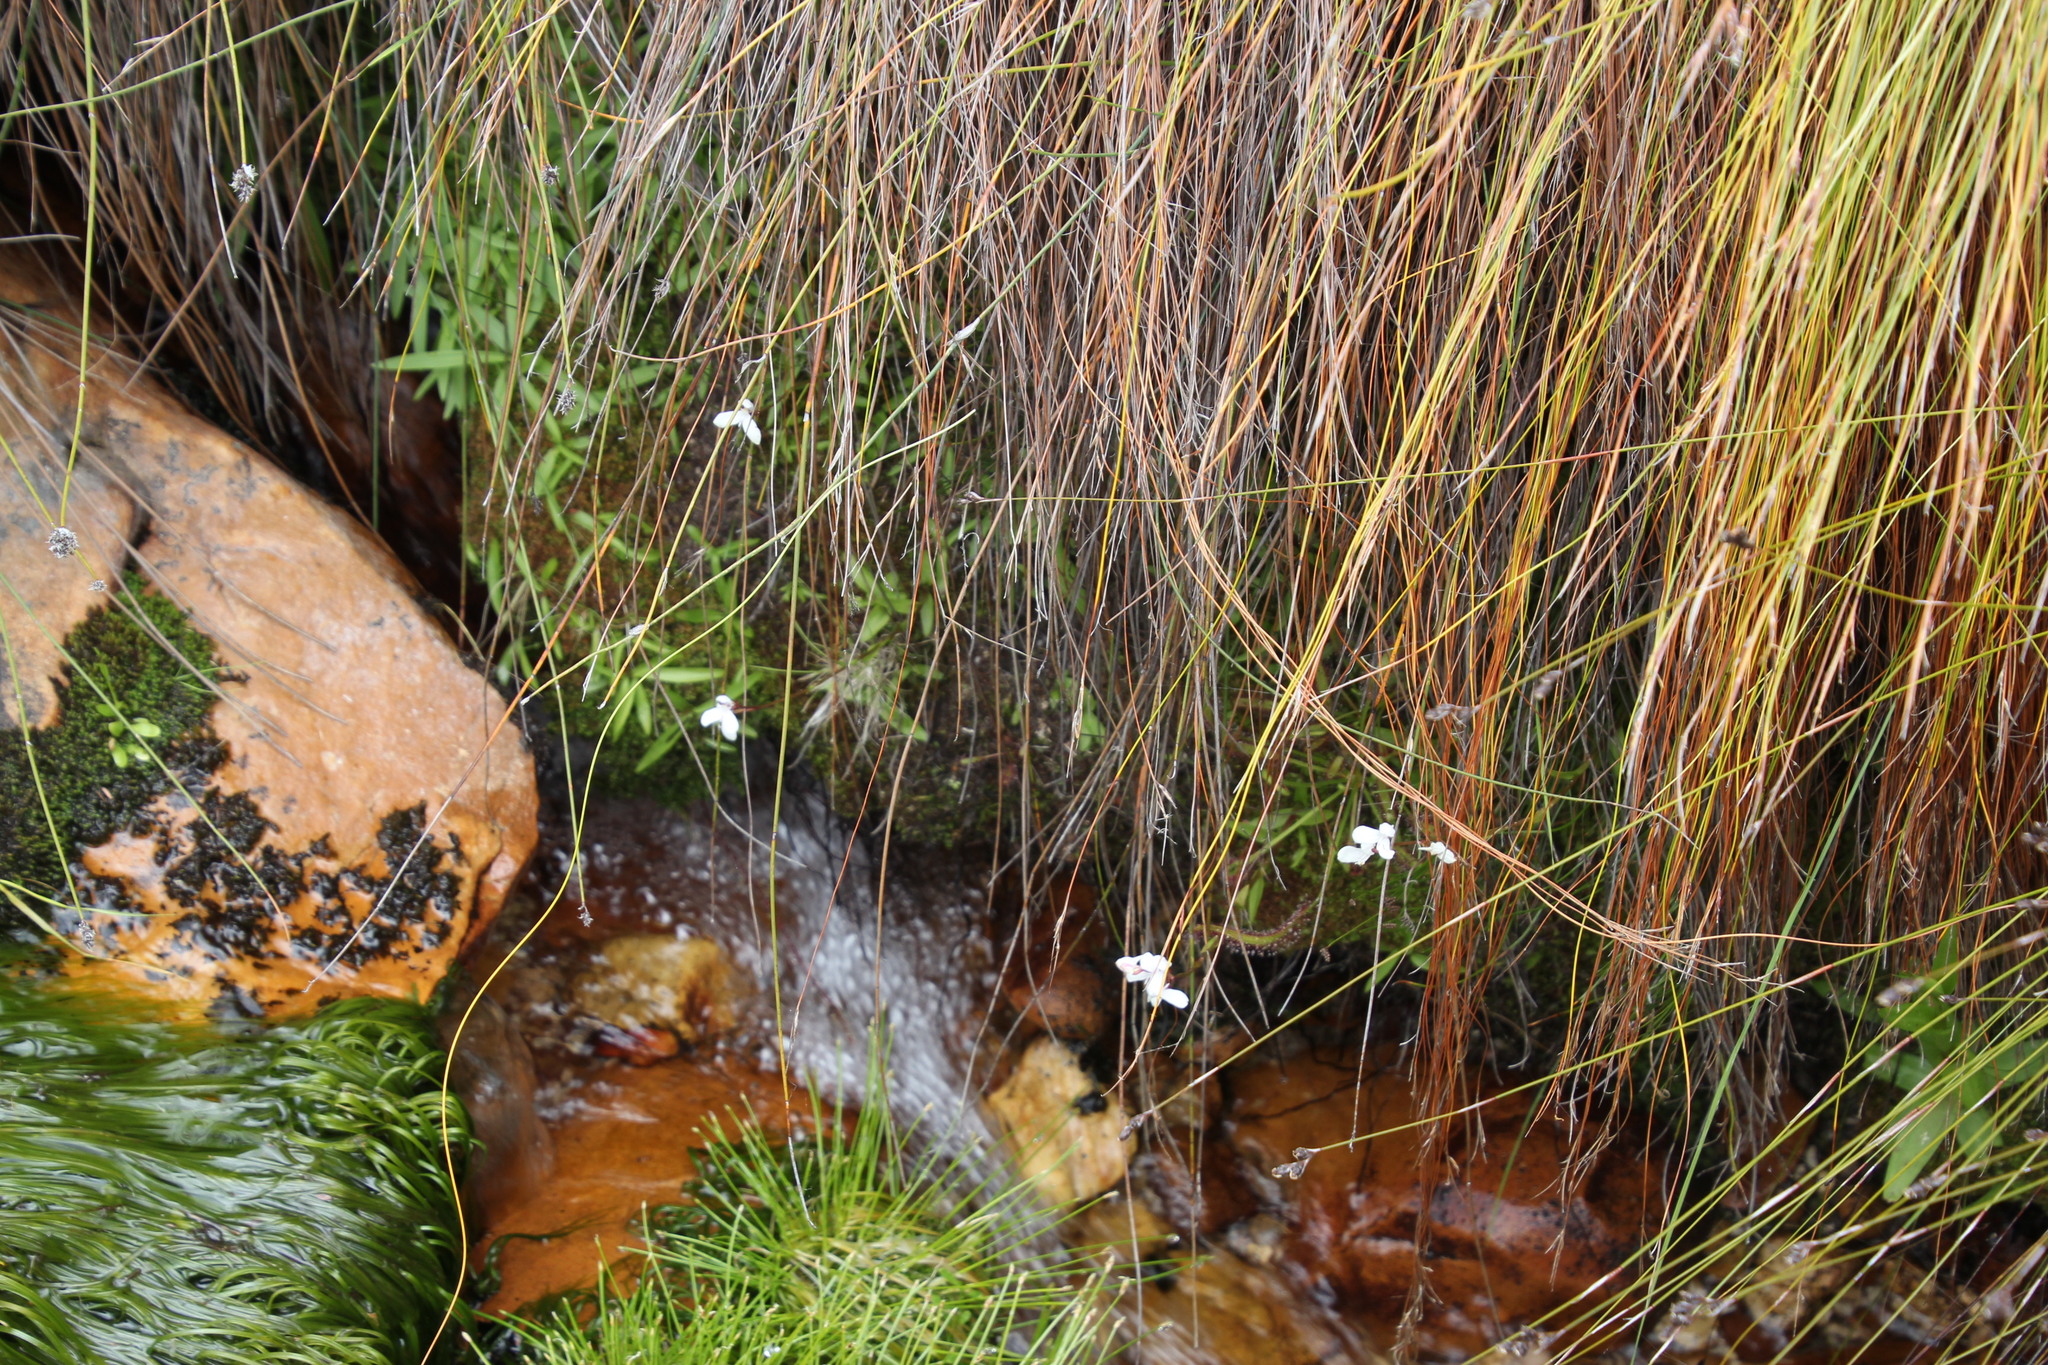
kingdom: Plantae
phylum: Tracheophyta
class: Liliopsida
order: Asparagales
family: Orchidaceae
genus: Disa
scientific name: Disa caulescens
